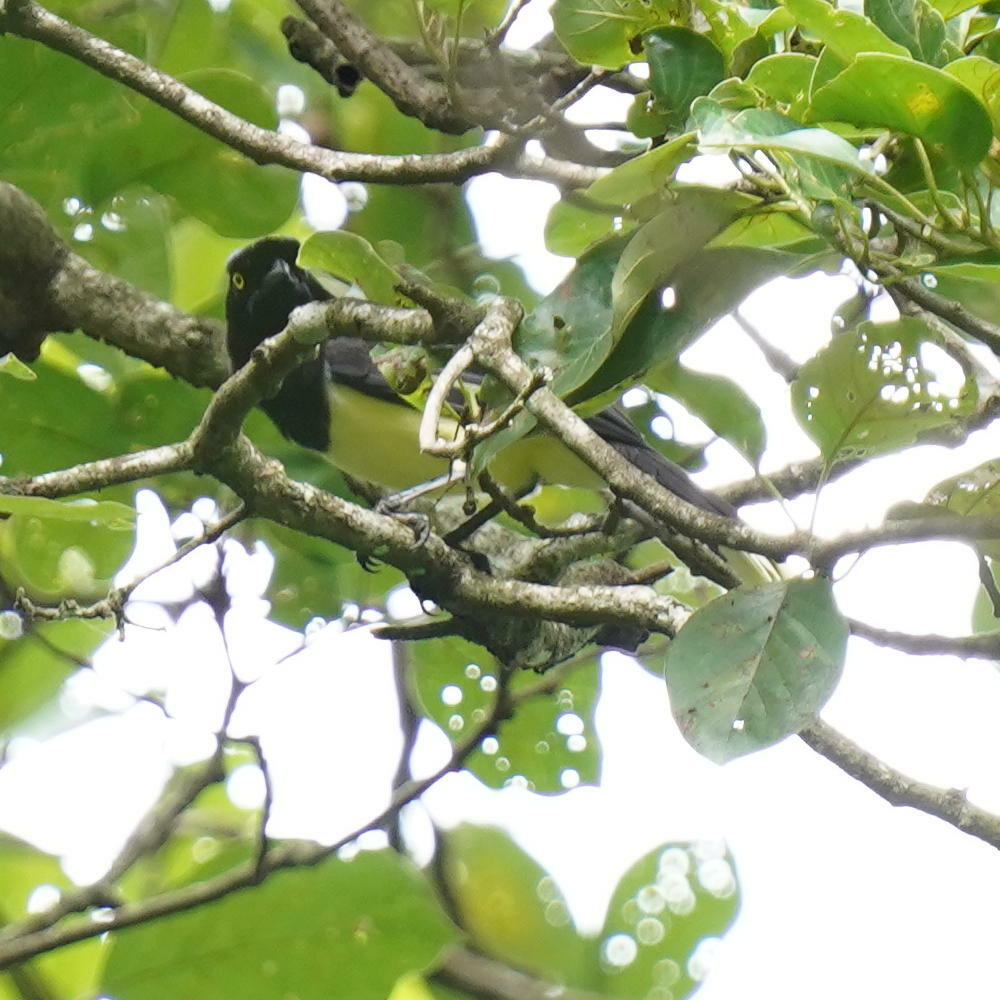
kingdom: Animalia
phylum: Chordata
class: Aves
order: Passeriformes
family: Corvidae
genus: Cyanocorax
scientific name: Cyanocorax affinis
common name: Black-chested jay
